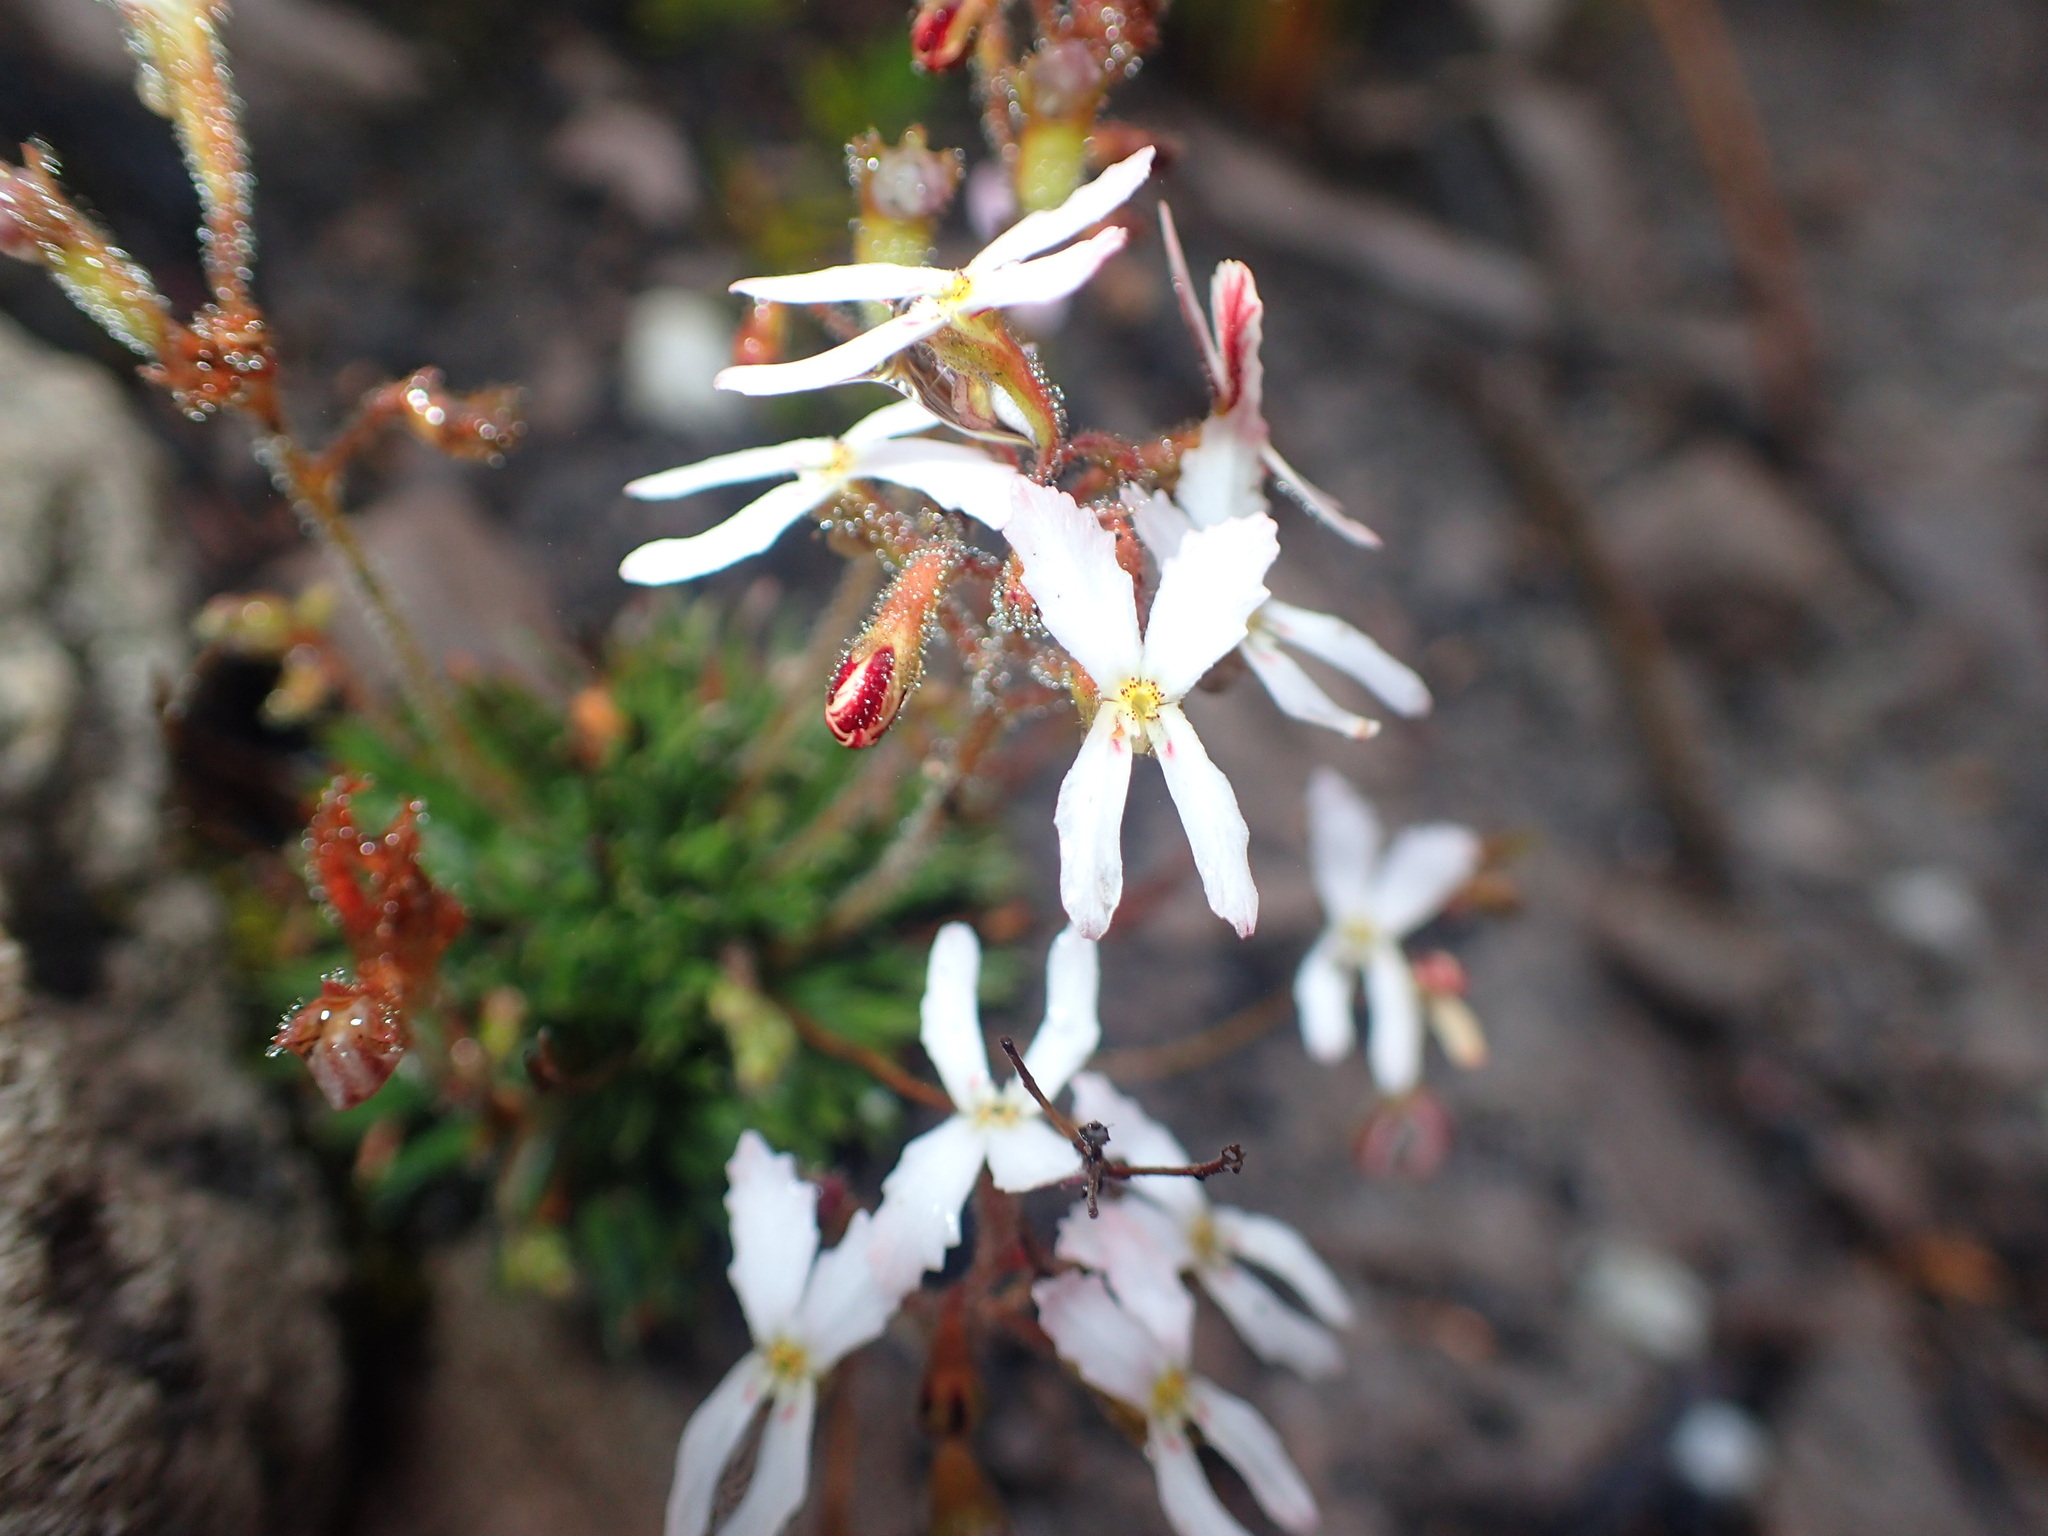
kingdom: Plantae
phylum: Tracheophyta
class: Magnoliopsida
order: Asterales
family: Stylidiaceae
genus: Stylidium
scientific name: Stylidium spathulatum
